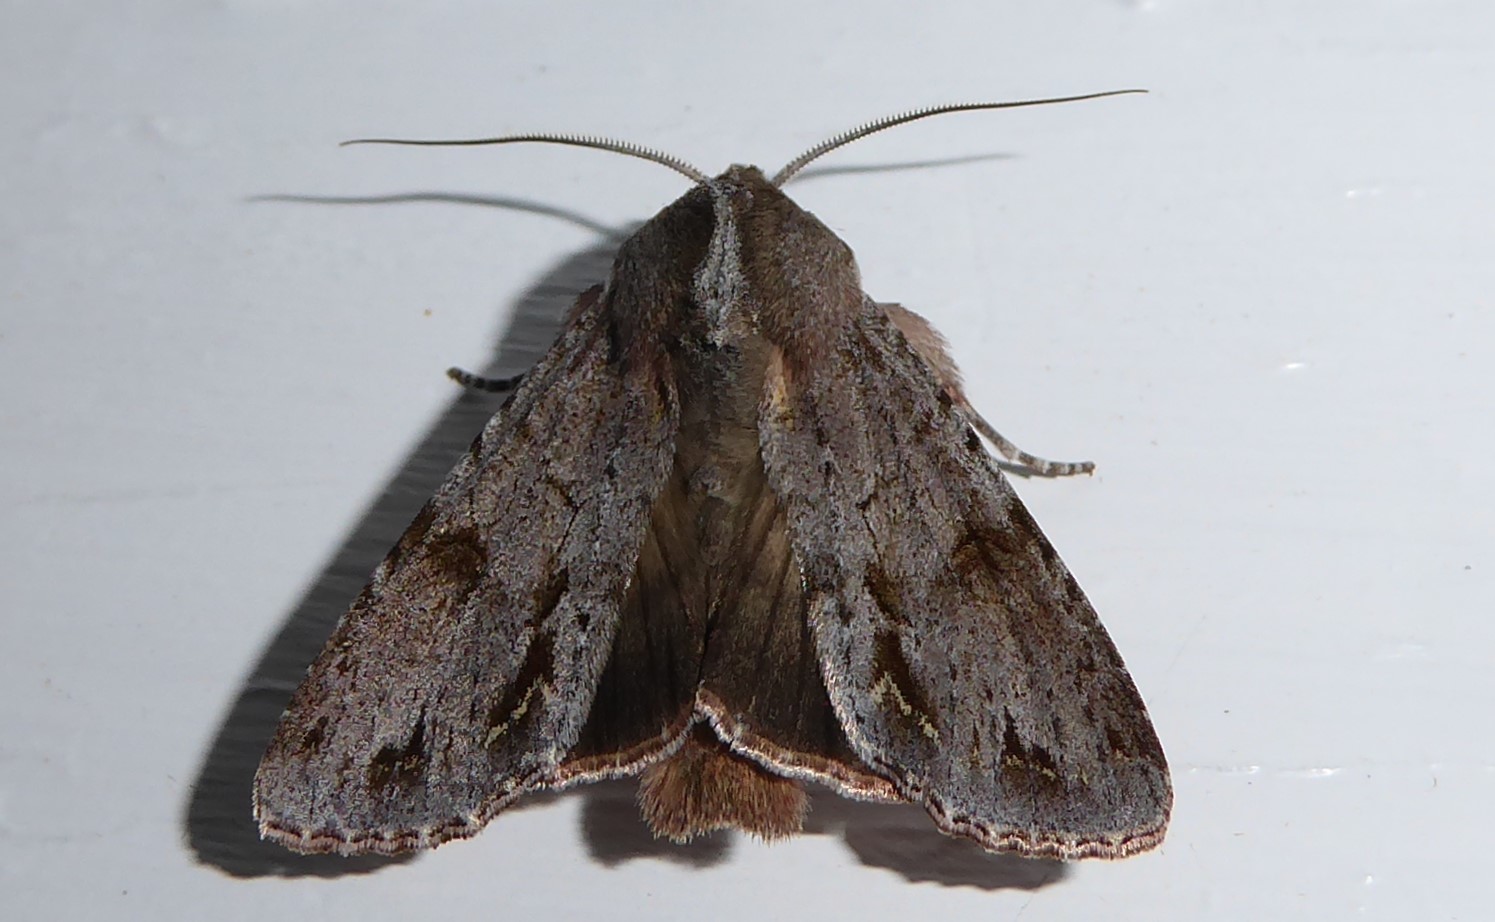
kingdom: Animalia
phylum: Arthropoda
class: Insecta
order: Lepidoptera
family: Noctuidae
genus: Ichneutica
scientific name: Ichneutica
